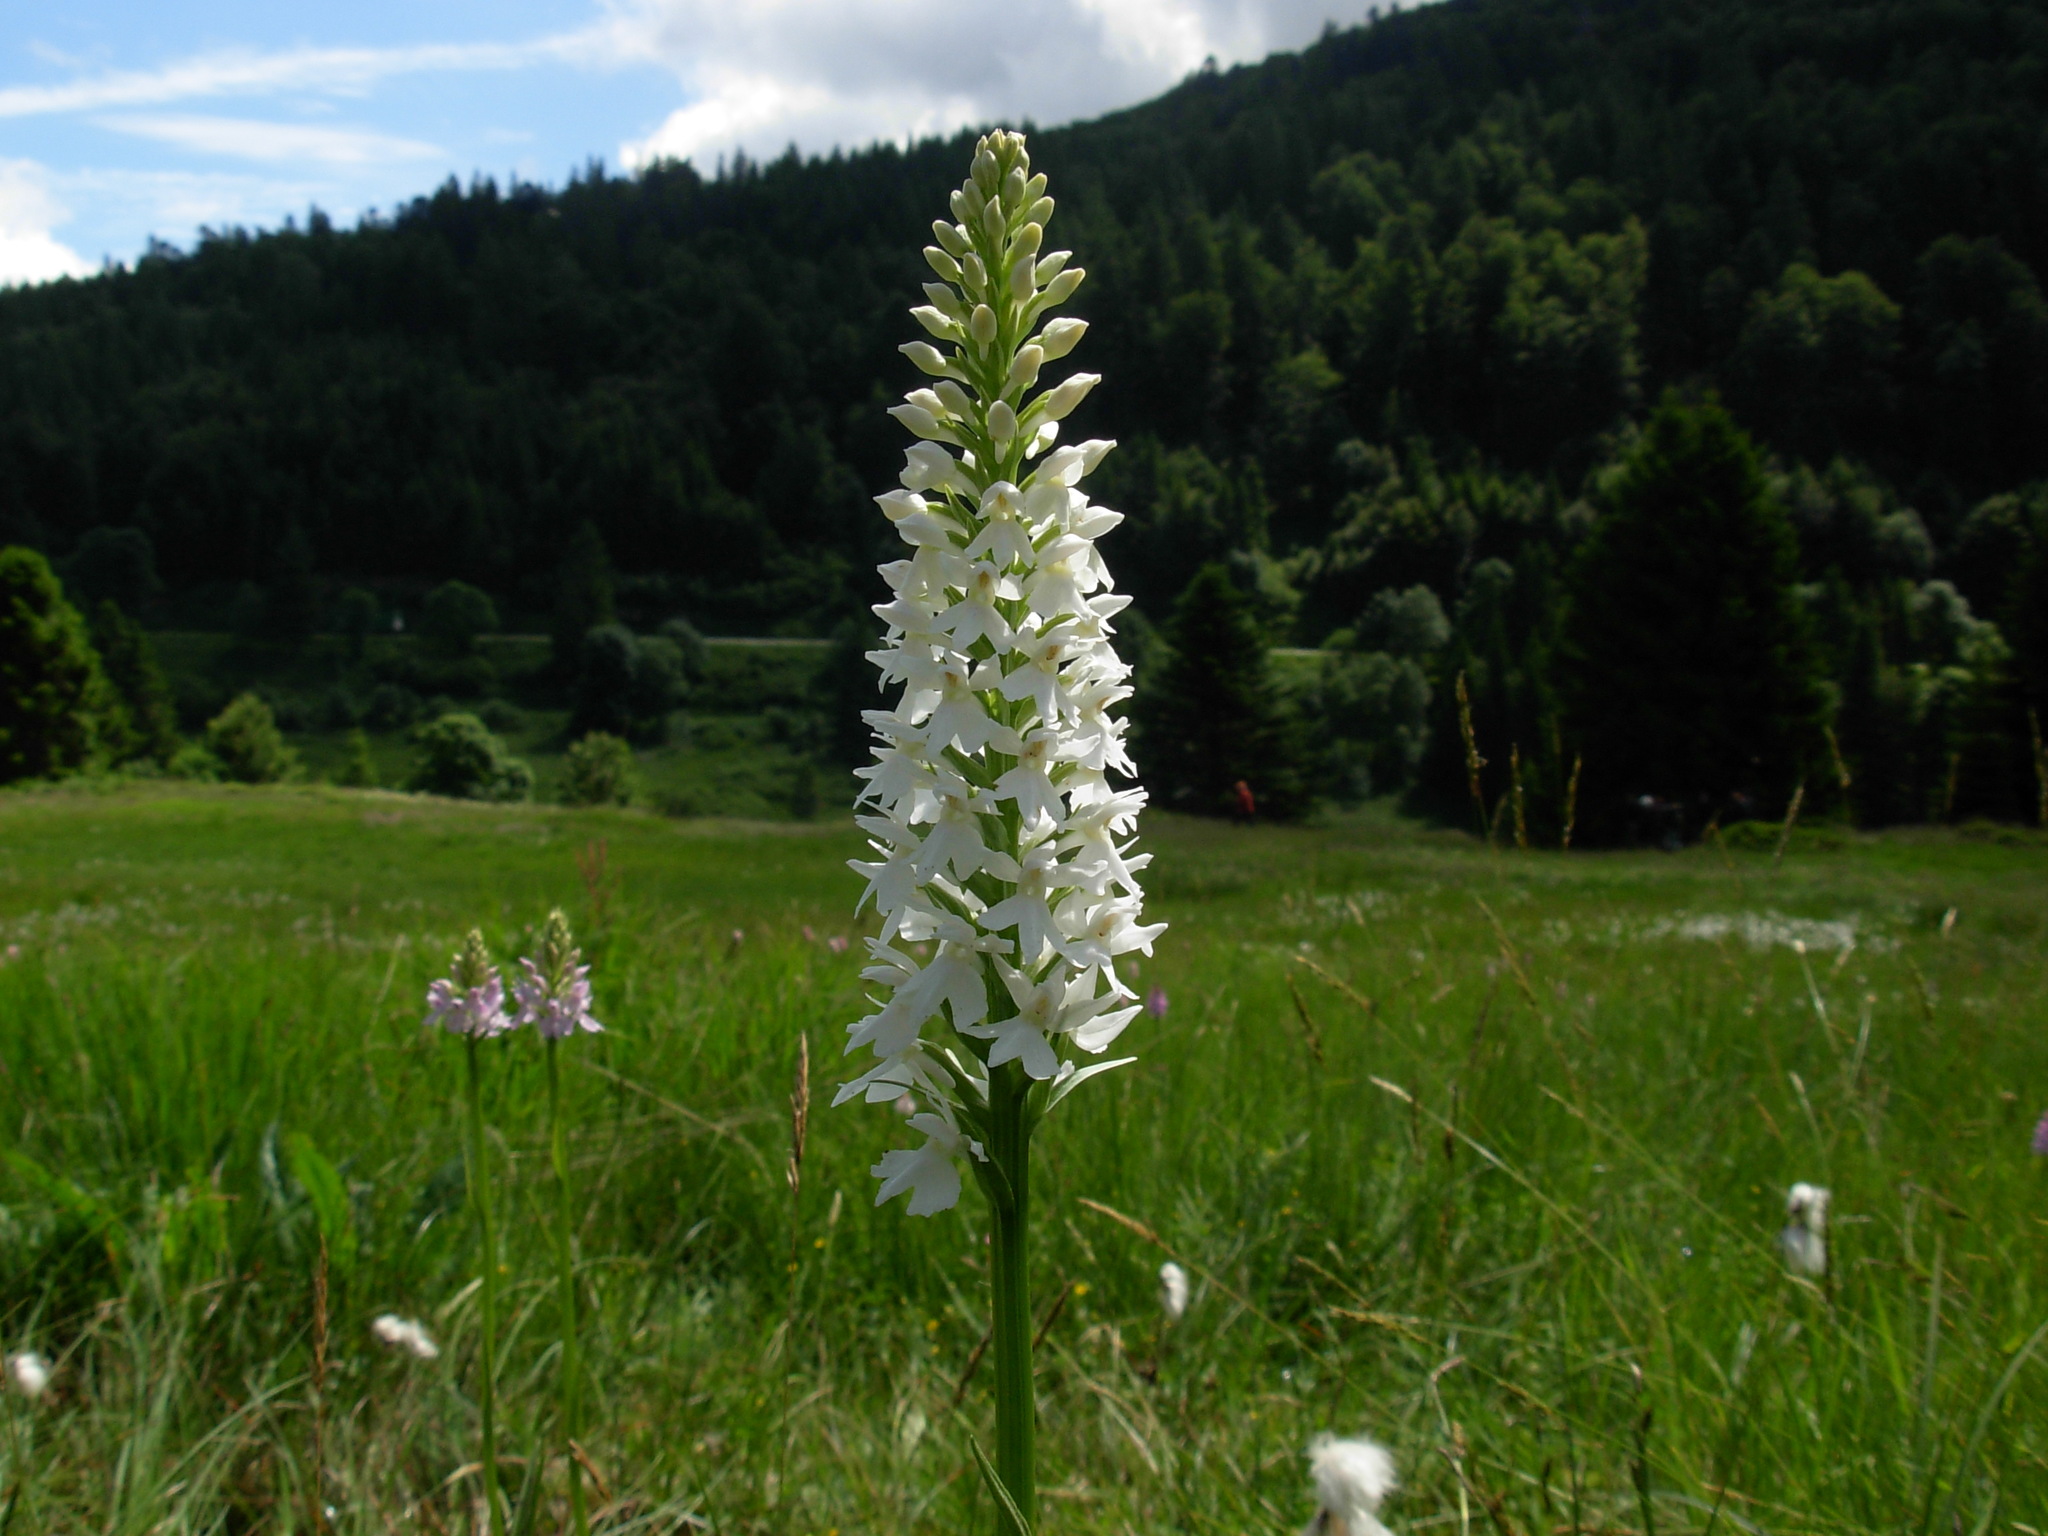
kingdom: Plantae
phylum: Tracheophyta
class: Liliopsida
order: Asparagales
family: Orchidaceae
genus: Dactylorhiza
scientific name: Dactylorhiza maculata
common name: Heath spotted-orchid
